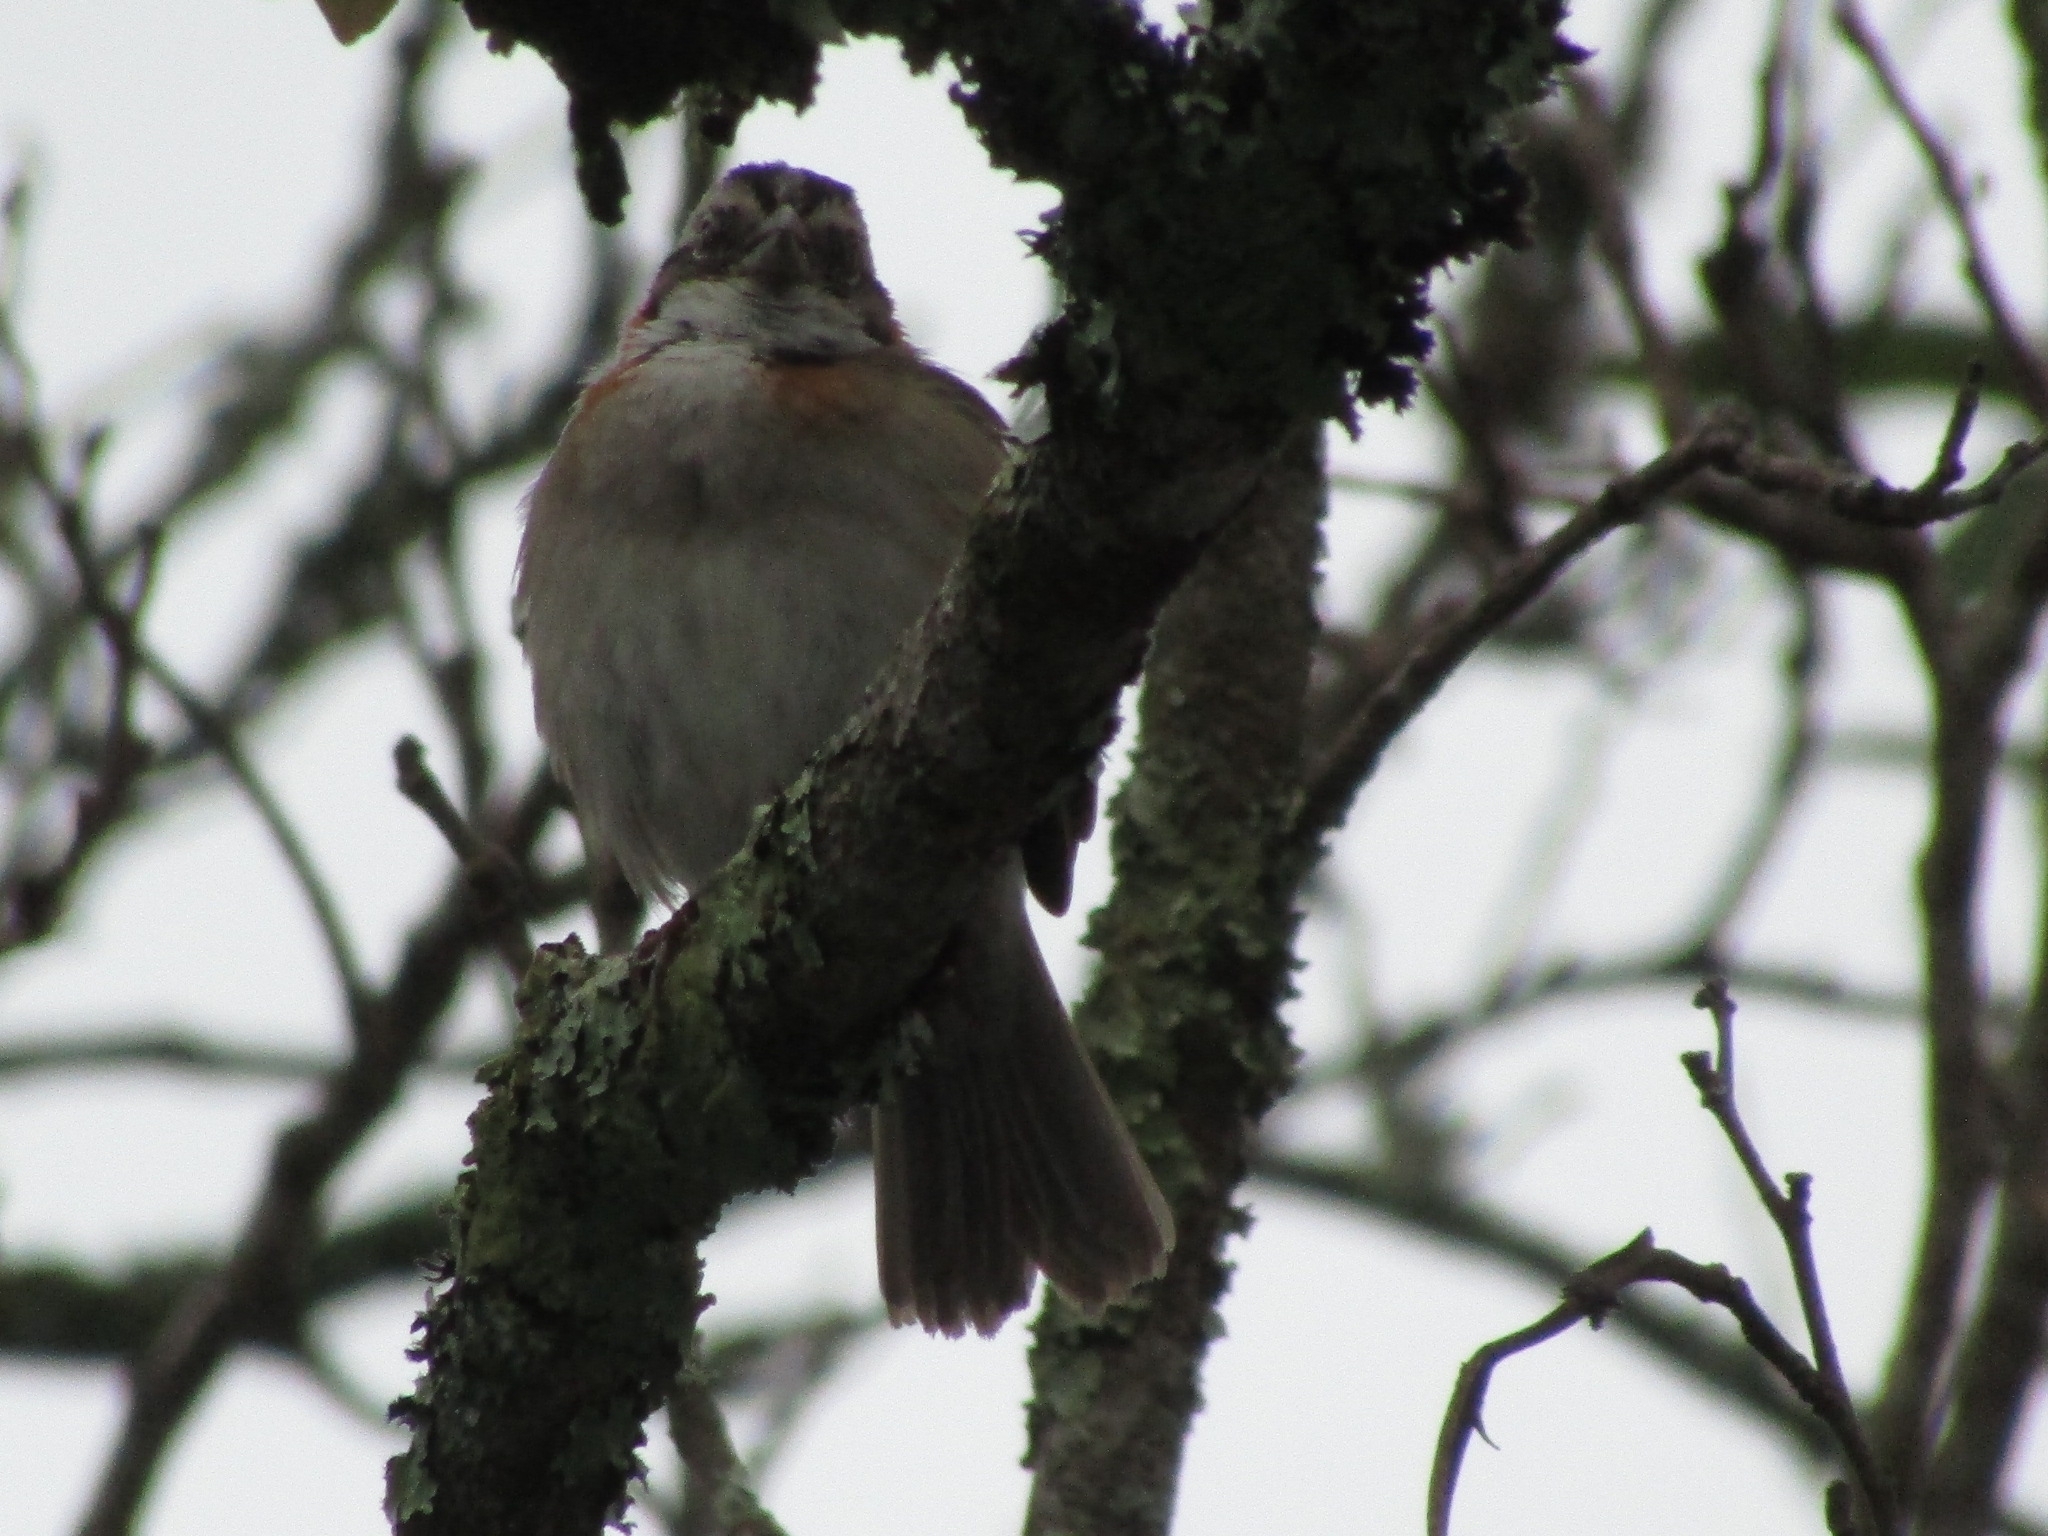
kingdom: Animalia
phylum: Chordata
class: Aves
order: Passeriformes
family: Passerellidae
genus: Zonotrichia
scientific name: Zonotrichia capensis
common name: Rufous-collared sparrow
